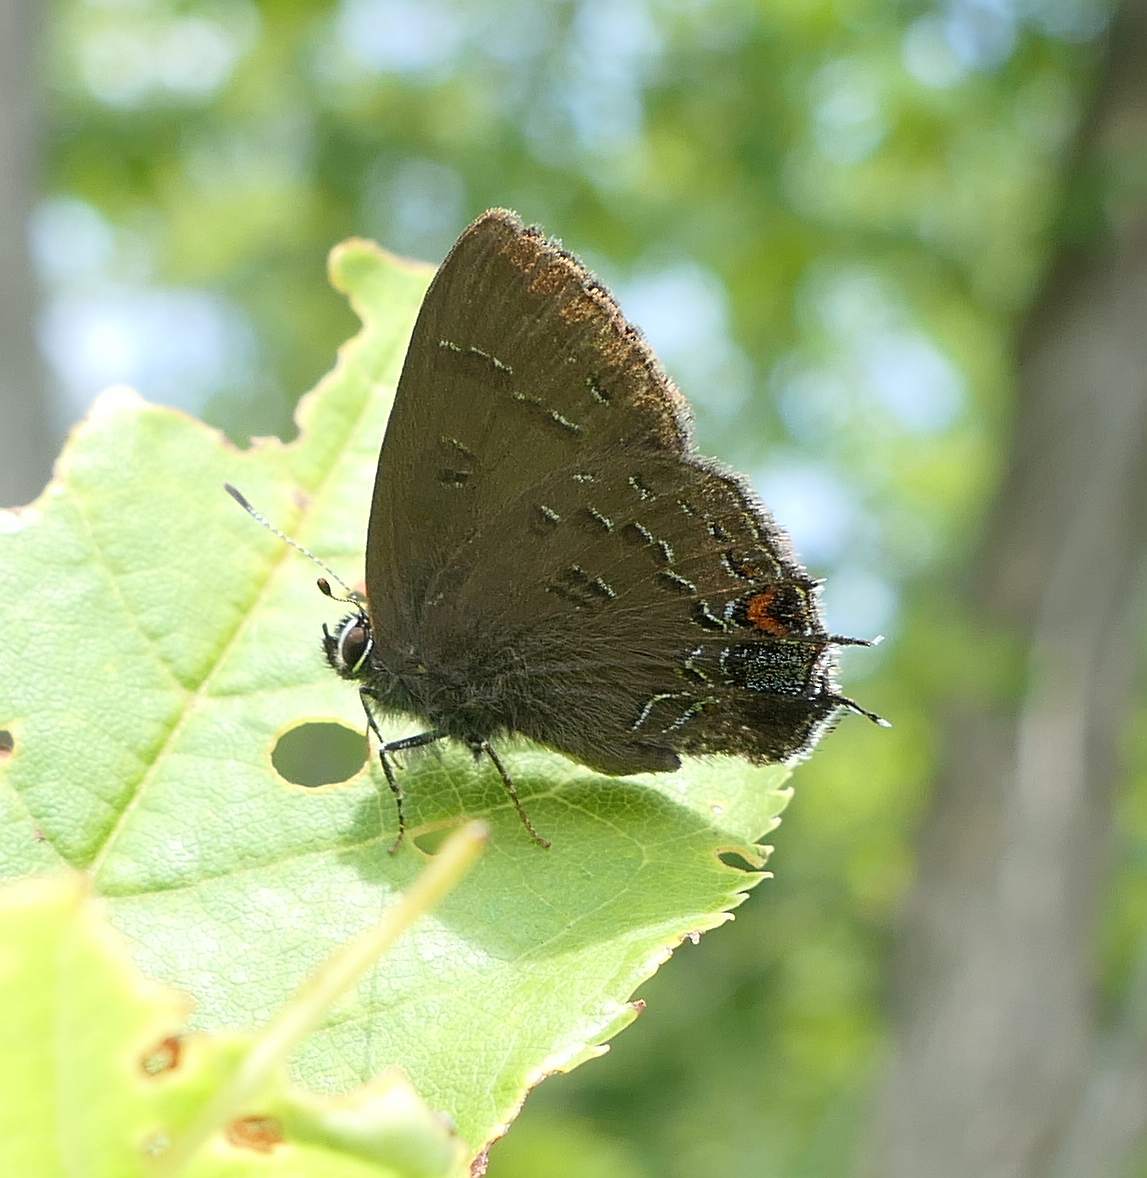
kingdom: Animalia
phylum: Arthropoda
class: Insecta
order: Lepidoptera
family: Lycaenidae
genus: Satyrium
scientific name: Satyrium calanus
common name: Banded hairstreak
